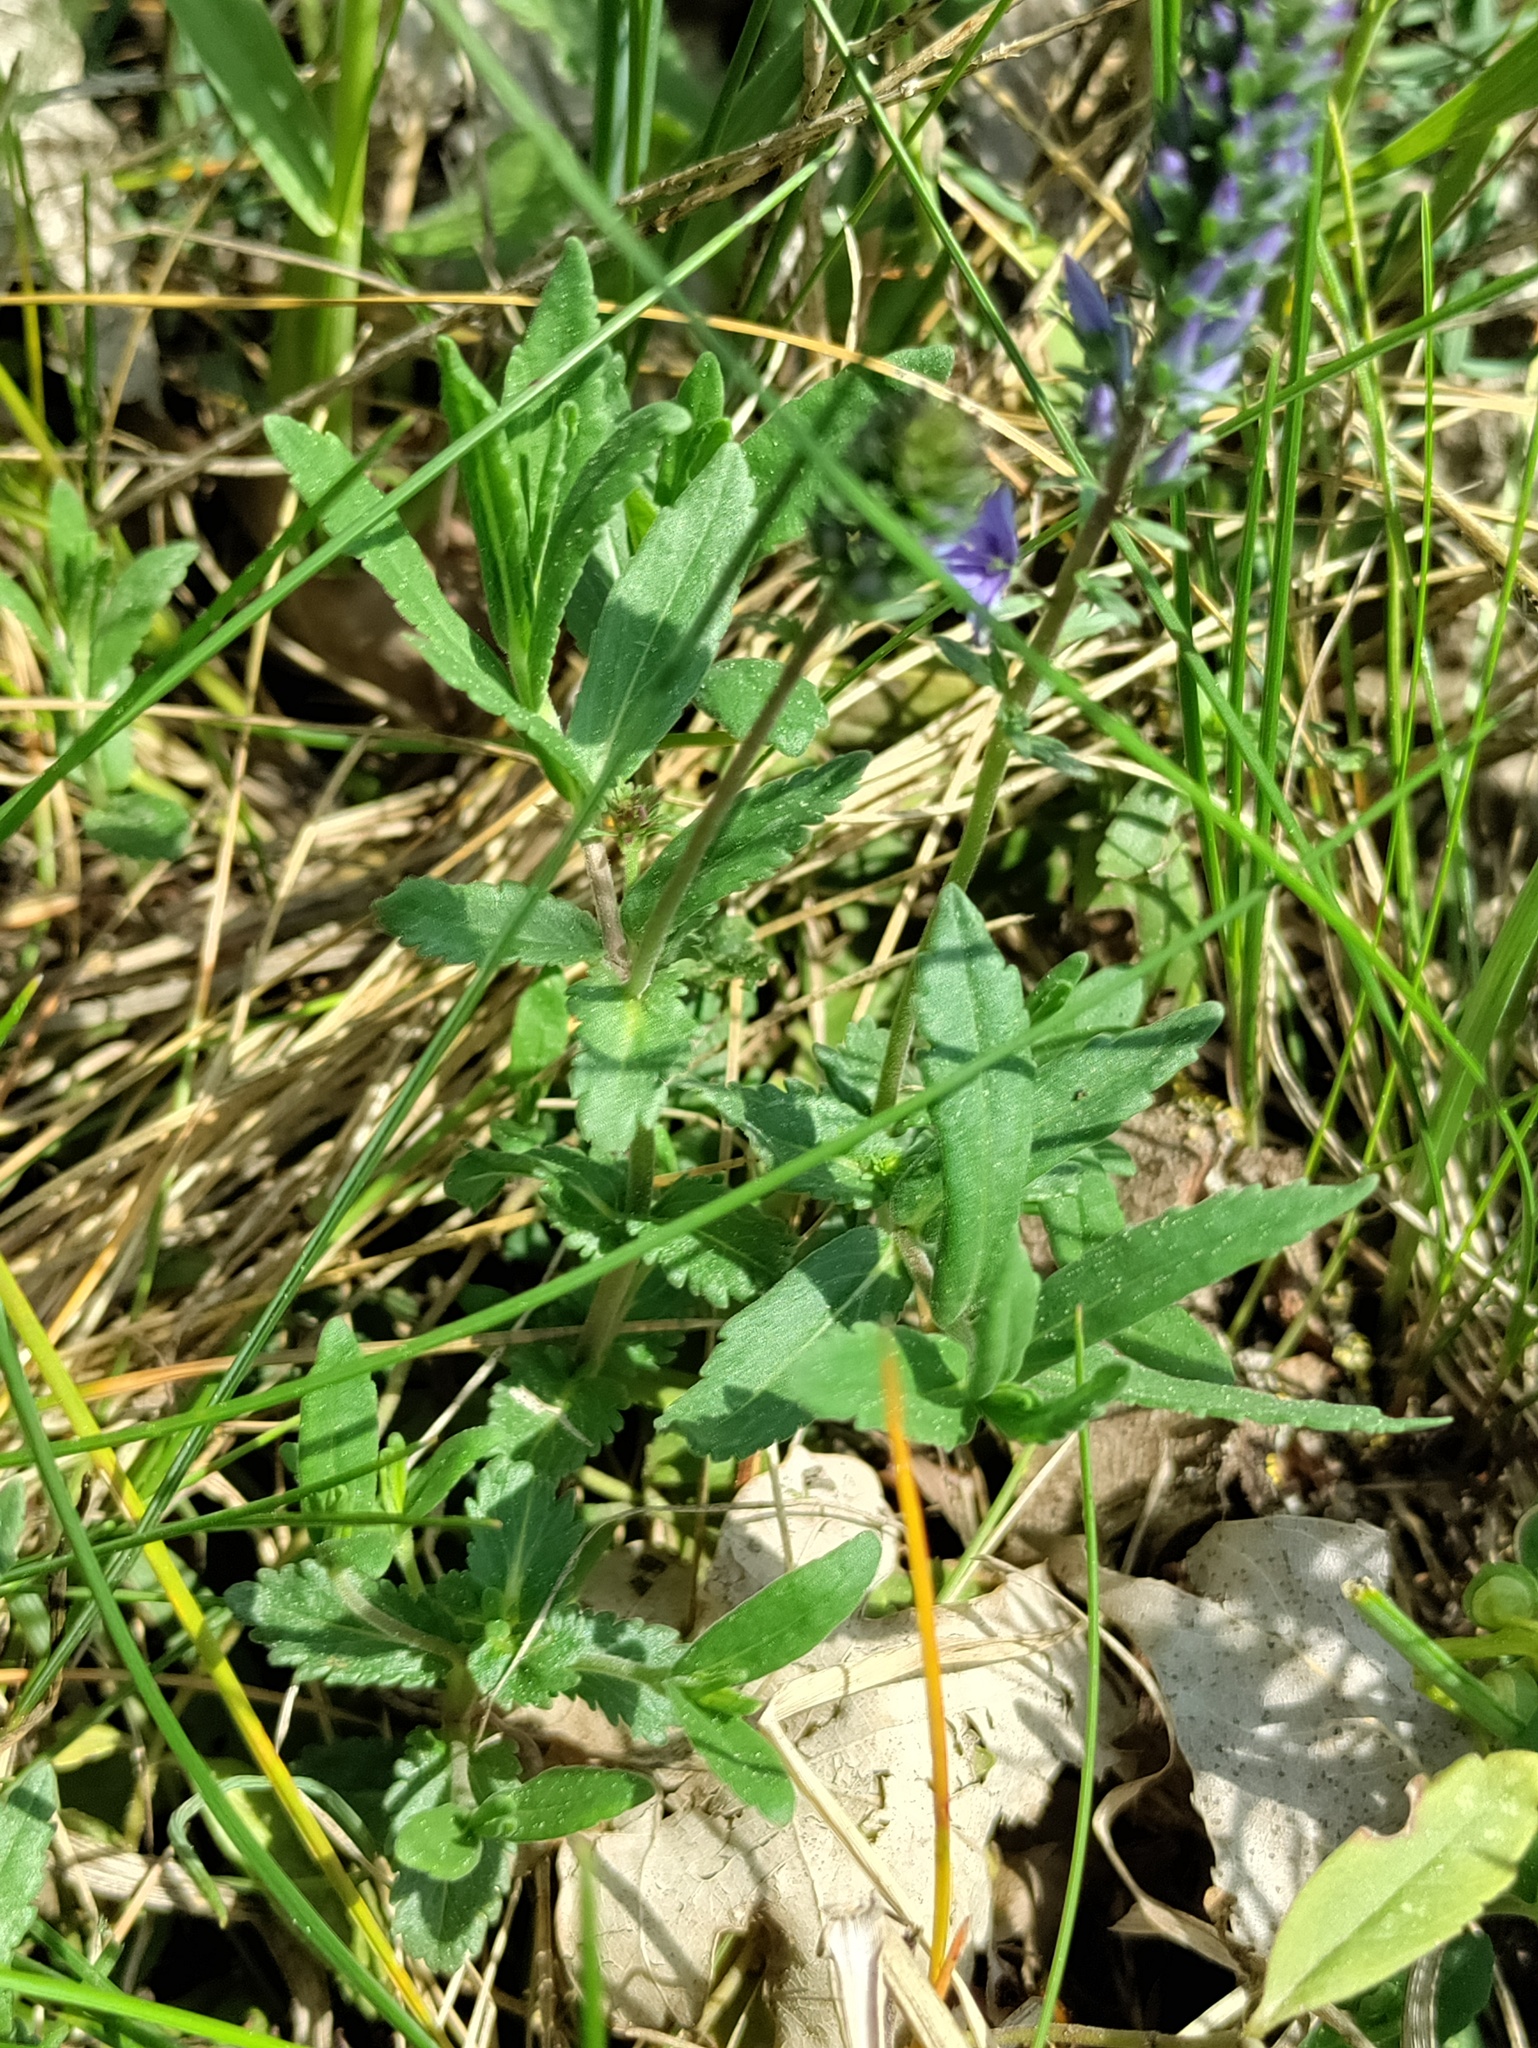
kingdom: Plantae
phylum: Tracheophyta
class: Magnoliopsida
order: Lamiales
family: Plantaginaceae
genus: Veronica
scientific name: Veronica prostrata
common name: Prostrate speedwell
